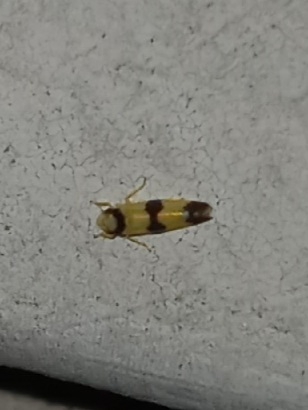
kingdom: Animalia
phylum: Arthropoda
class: Insecta
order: Hemiptera
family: Cicadellidae
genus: Erythroneura
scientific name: Erythroneura calycula
